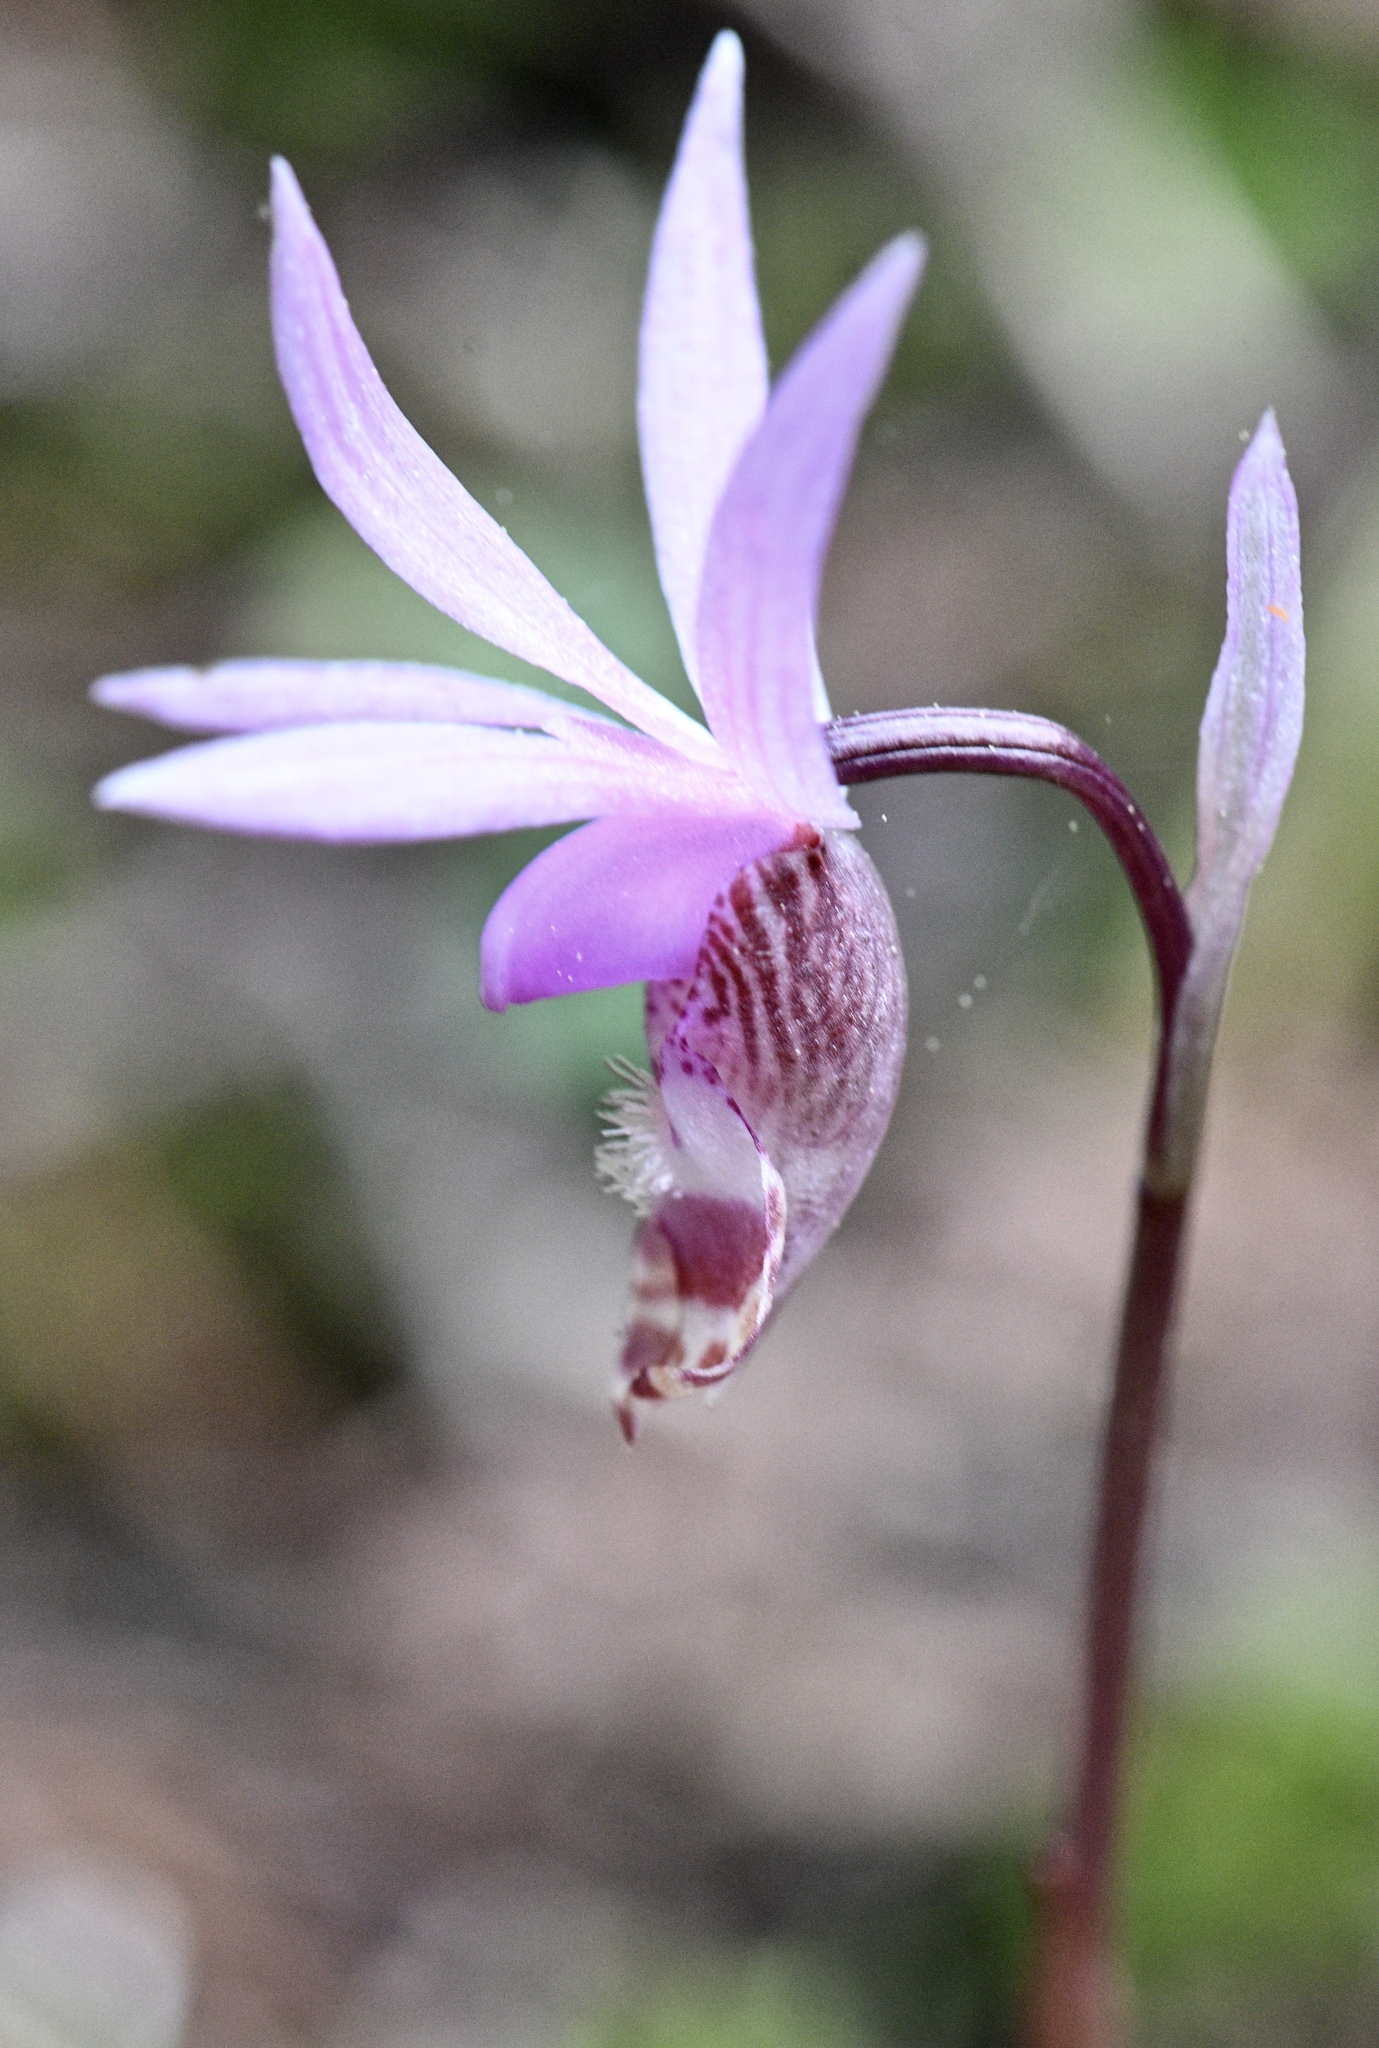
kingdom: Plantae
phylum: Tracheophyta
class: Liliopsida
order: Asparagales
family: Orchidaceae
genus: Calypso
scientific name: Calypso bulbosa
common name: Calypso
